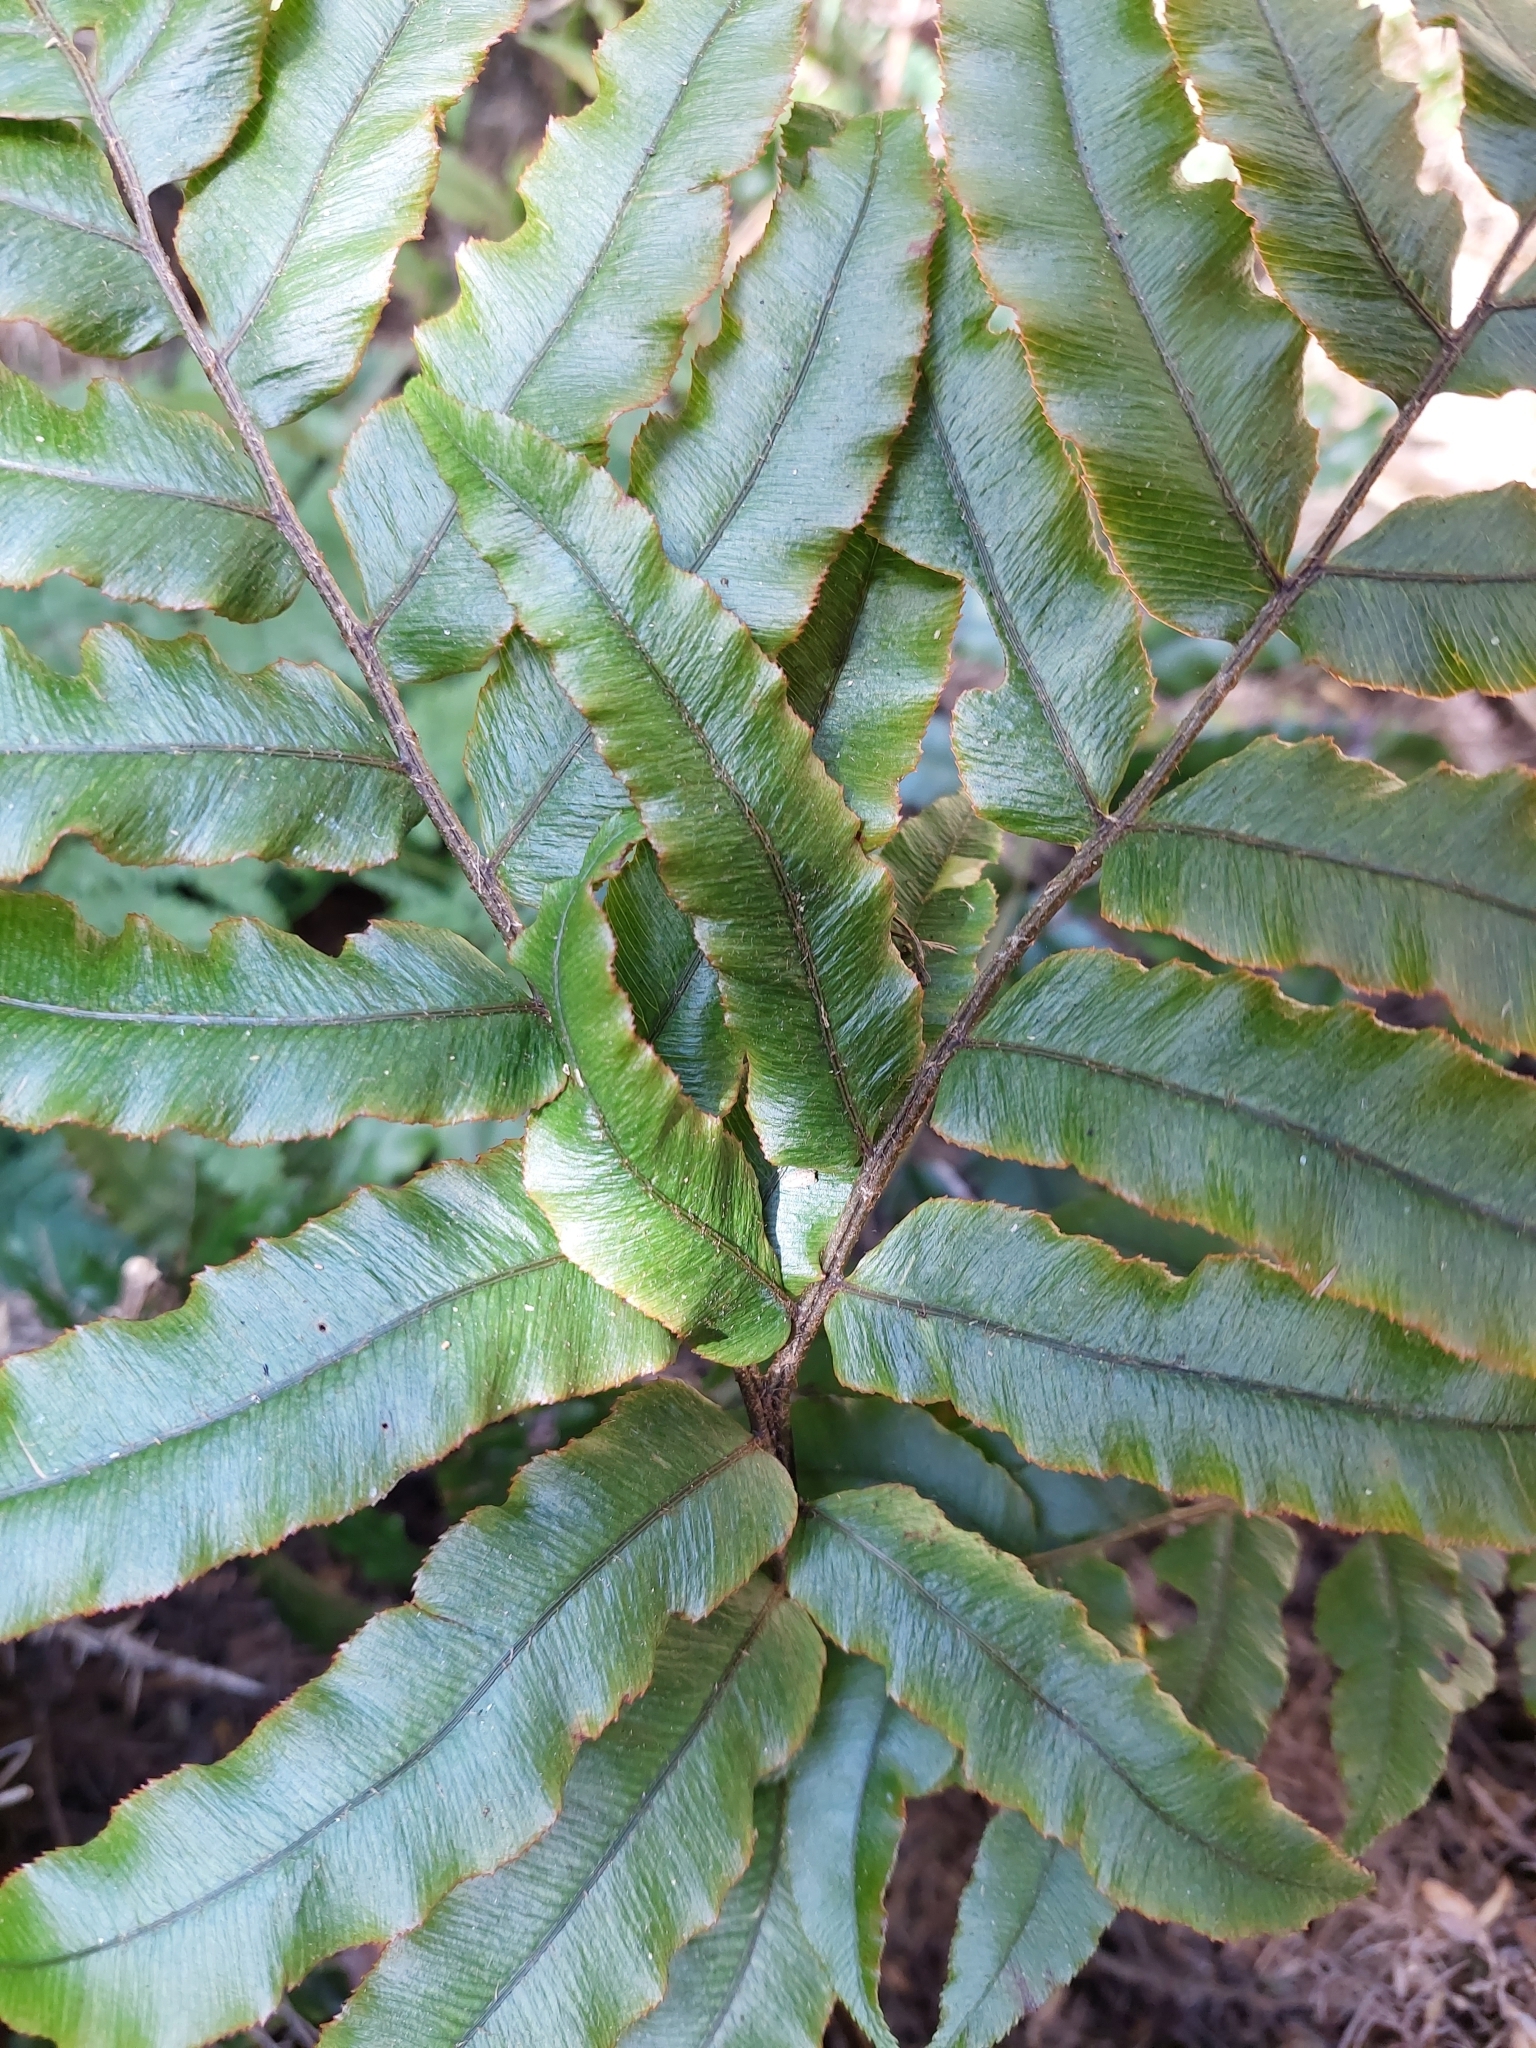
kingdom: Plantae
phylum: Tracheophyta
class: Polypodiopsida
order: Polypodiales
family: Blechnaceae
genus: Parablechnum
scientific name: Parablechnum procerum
